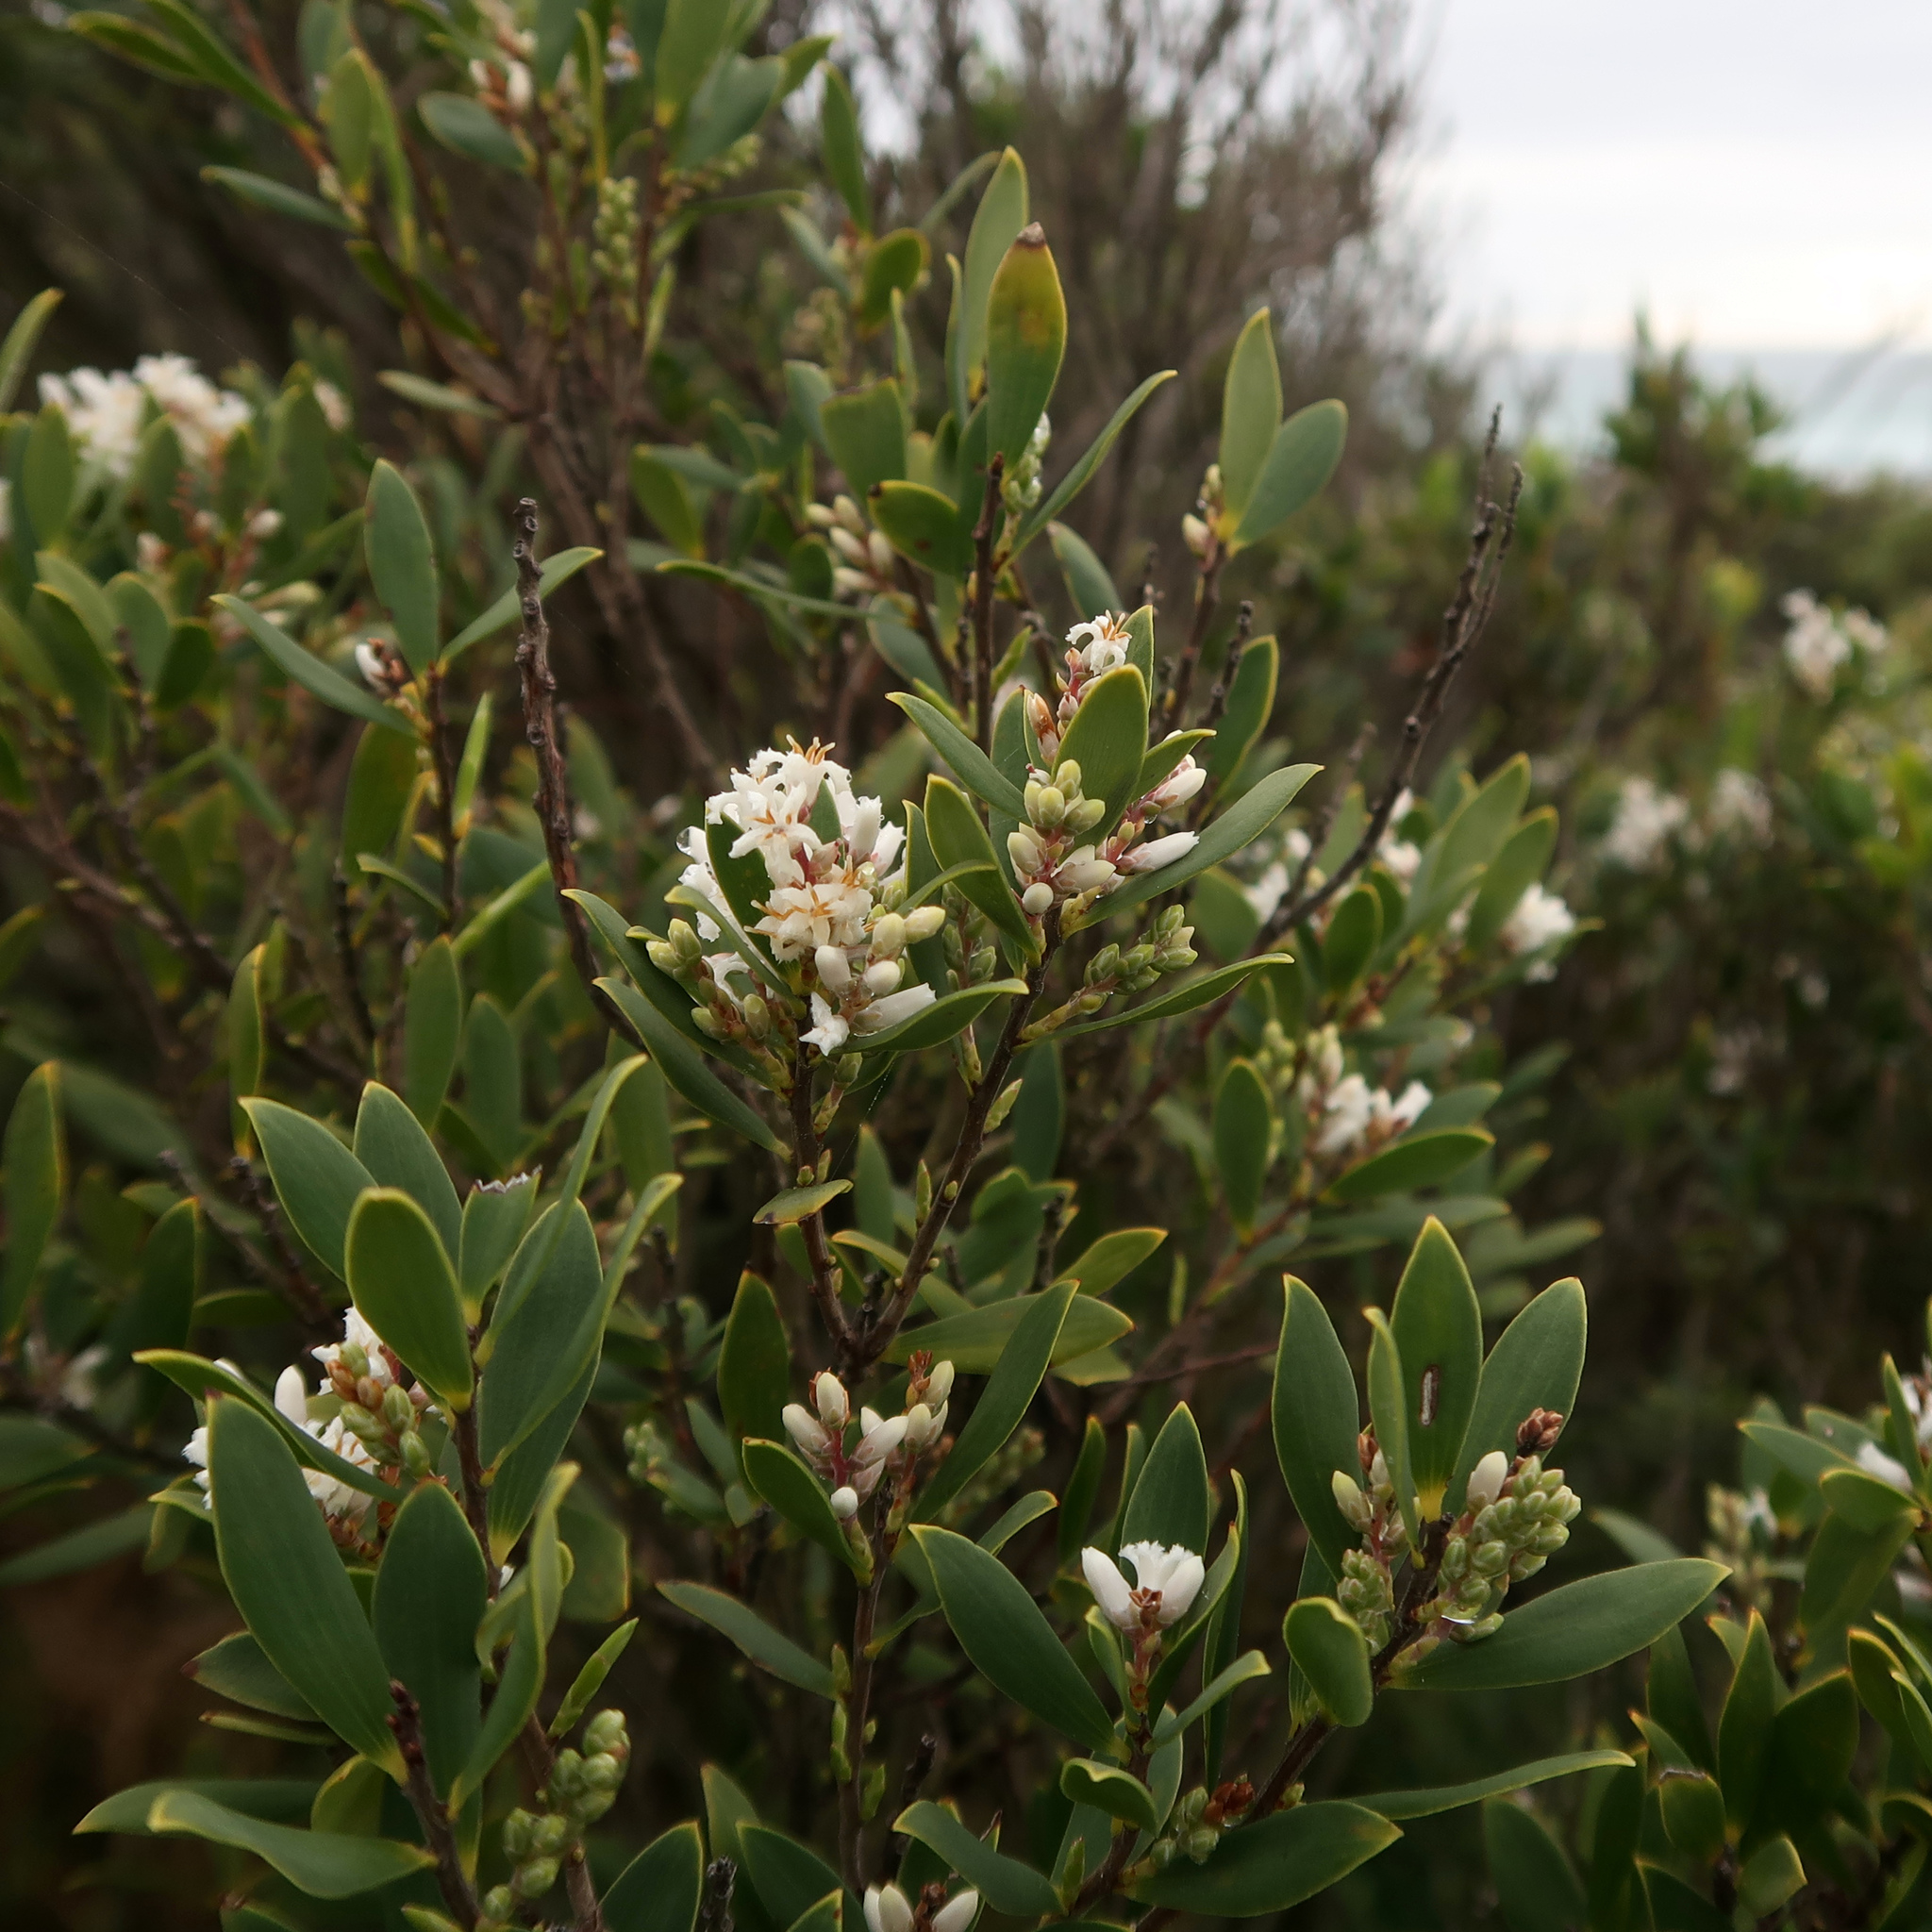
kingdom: Plantae
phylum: Tracheophyta
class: Magnoliopsida
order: Ericales
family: Ericaceae
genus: Leptecophylla
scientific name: Leptecophylla parvifolia
